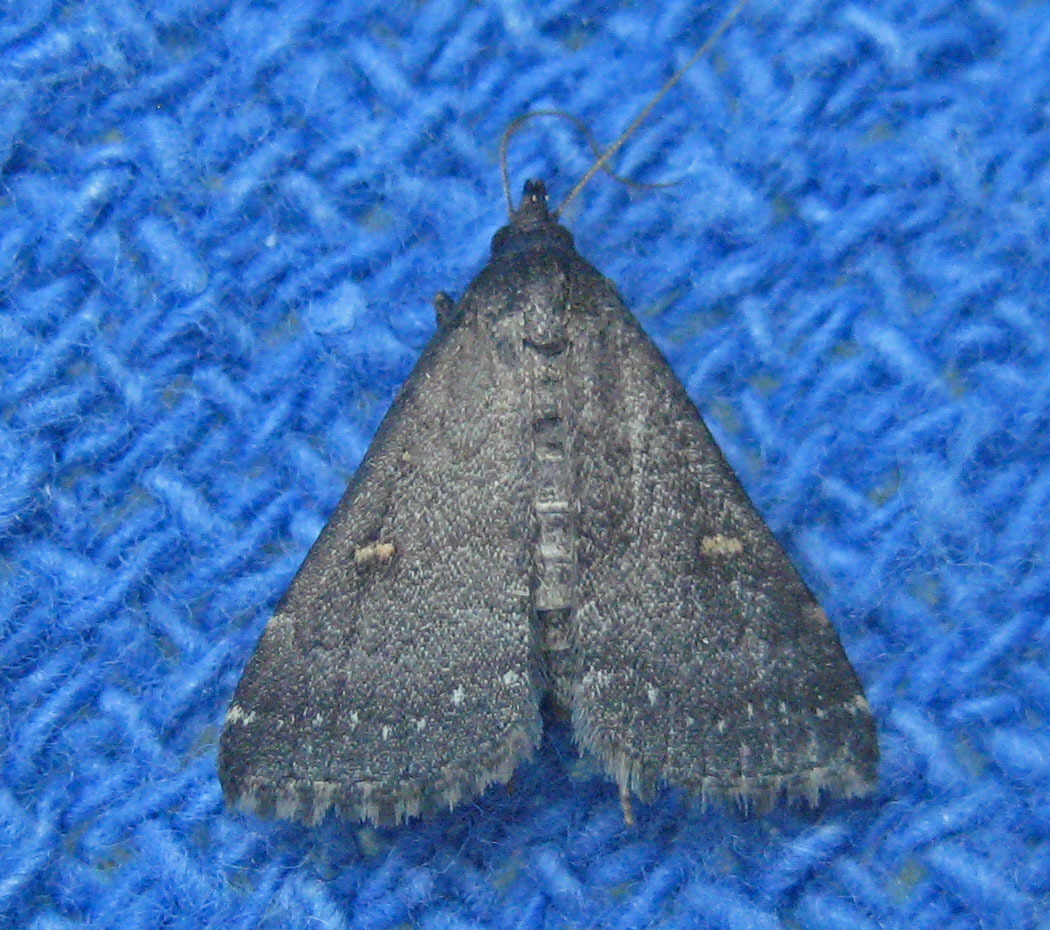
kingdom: Animalia
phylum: Arthropoda
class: Insecta
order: Lepidoptera
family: Erebidae
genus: Tetanolita
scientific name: Tetanolita mynesalis
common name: Smoky tetanolita moth
